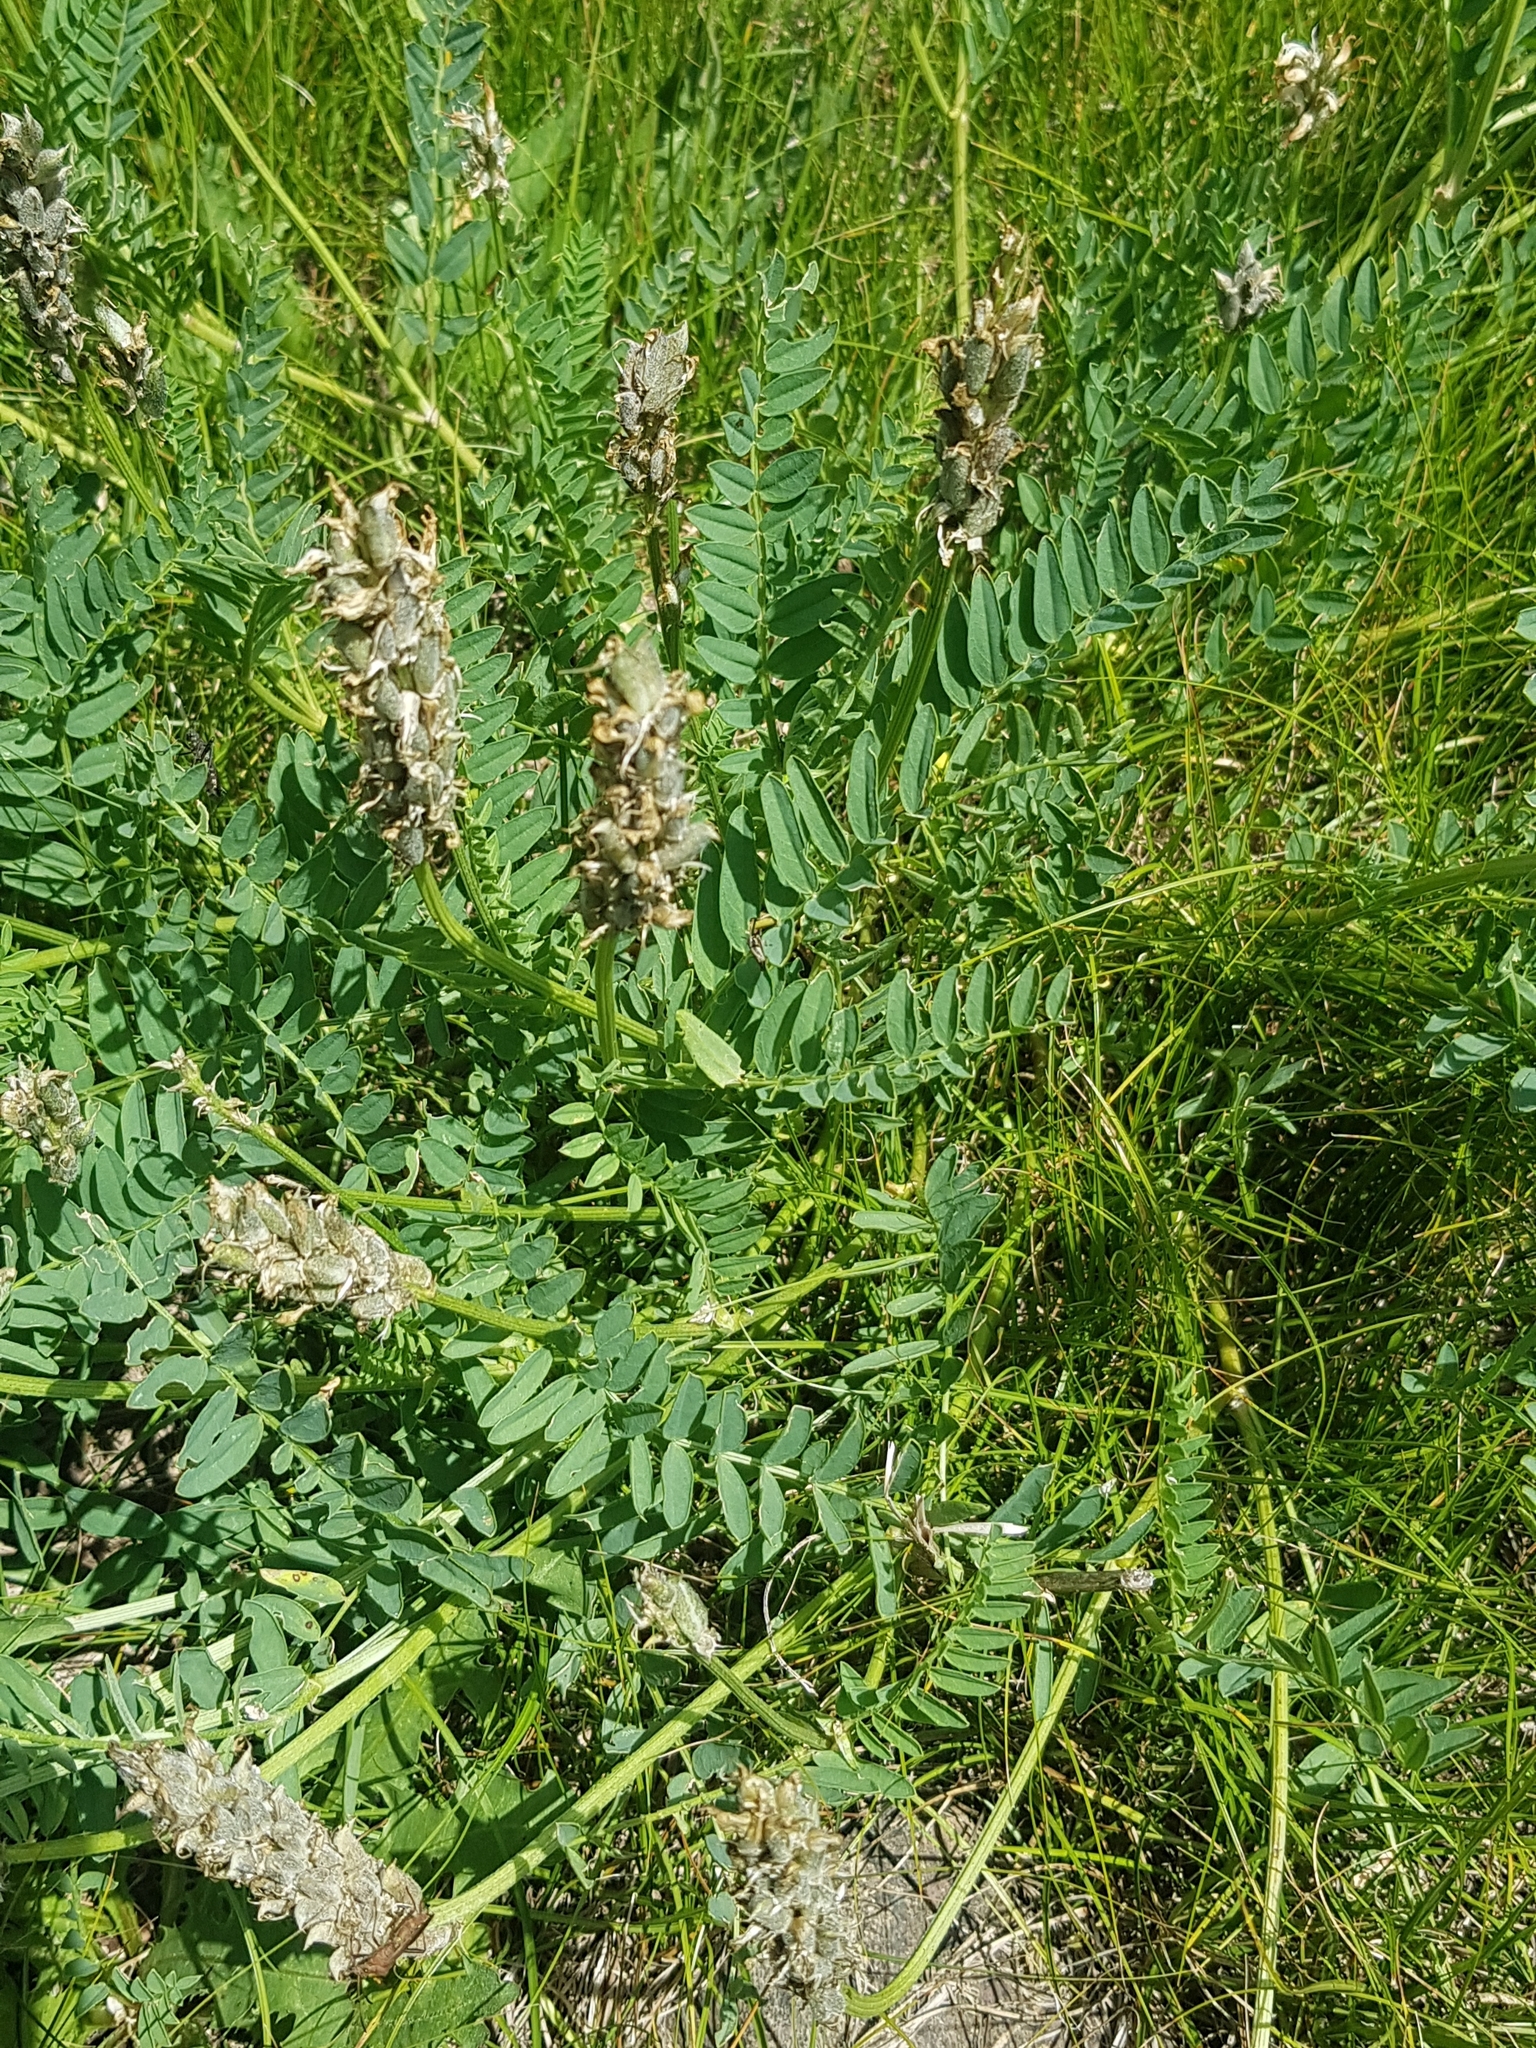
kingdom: Plantae
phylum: Tracheophyta
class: Magnoliopsida
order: Fabales
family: Fabaceae
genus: Astragalus
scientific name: Astragalus laxmannii
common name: Laxmann's milk-vetch
